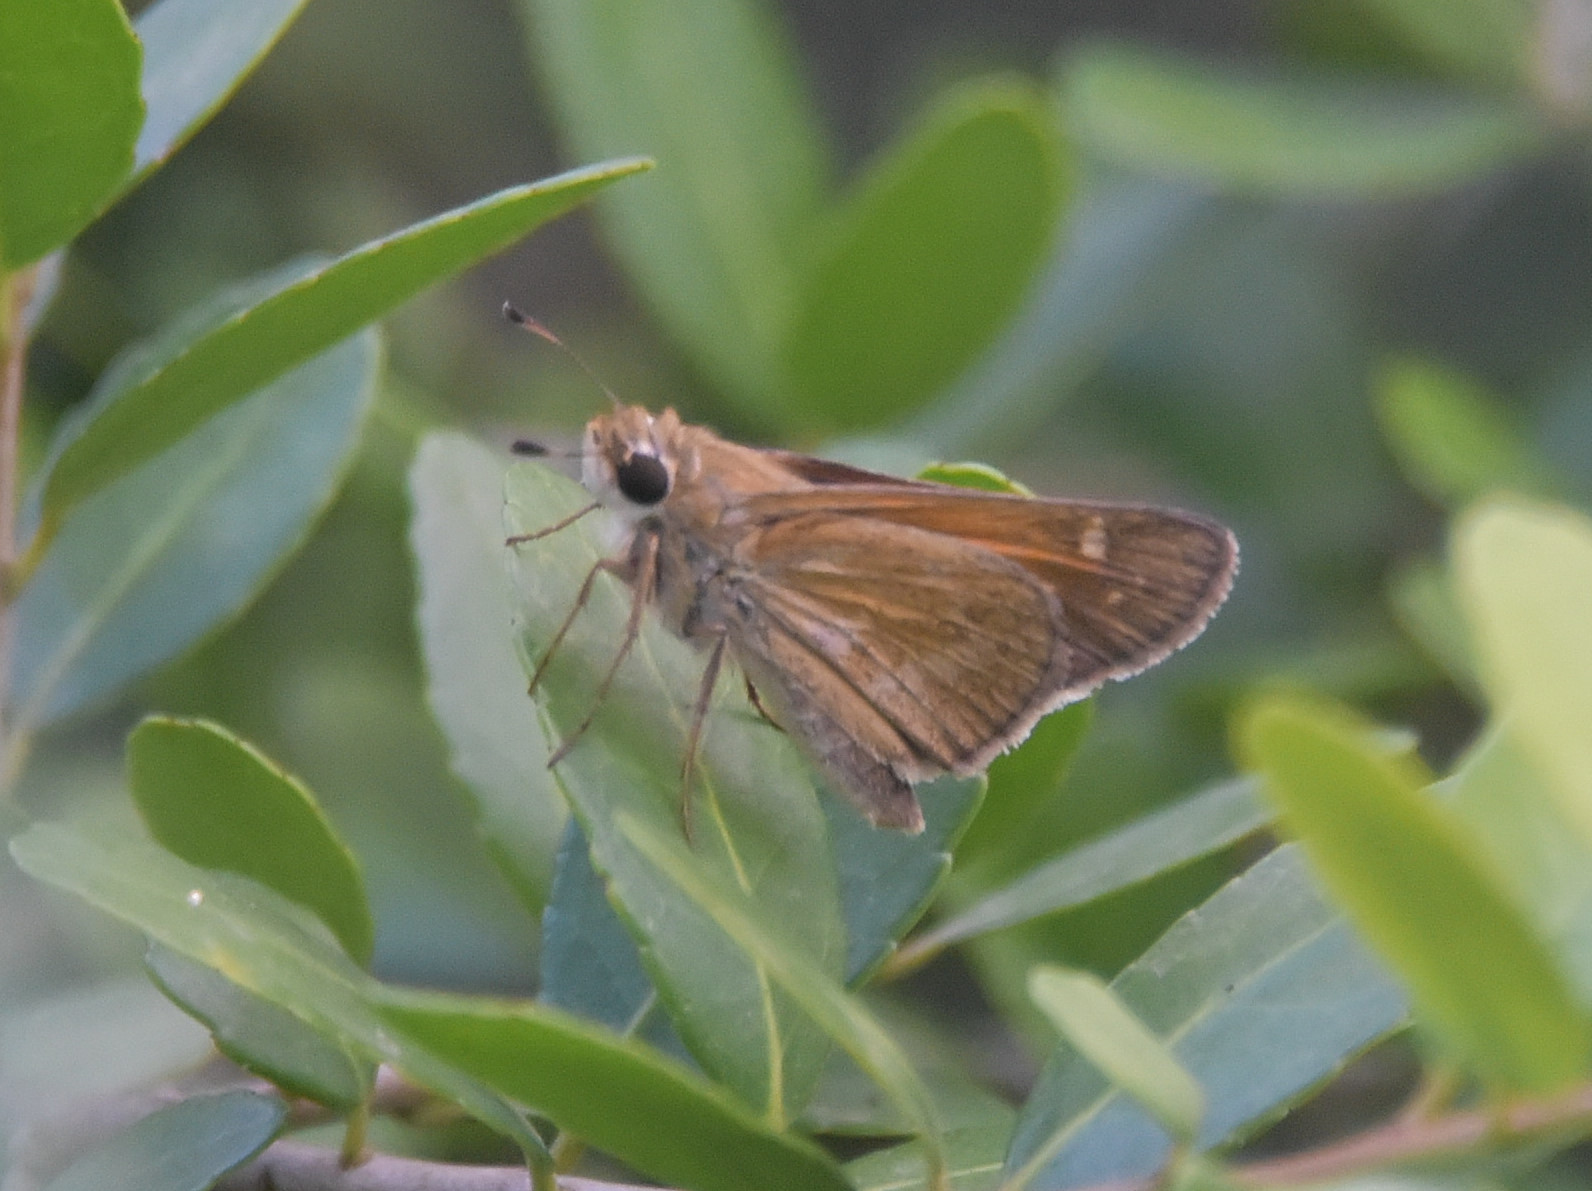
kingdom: Animalia
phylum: Arthropoda
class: Insecta
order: Lepidoptera
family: Hesperiidae
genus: Atalopedes
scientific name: Atalopedes
